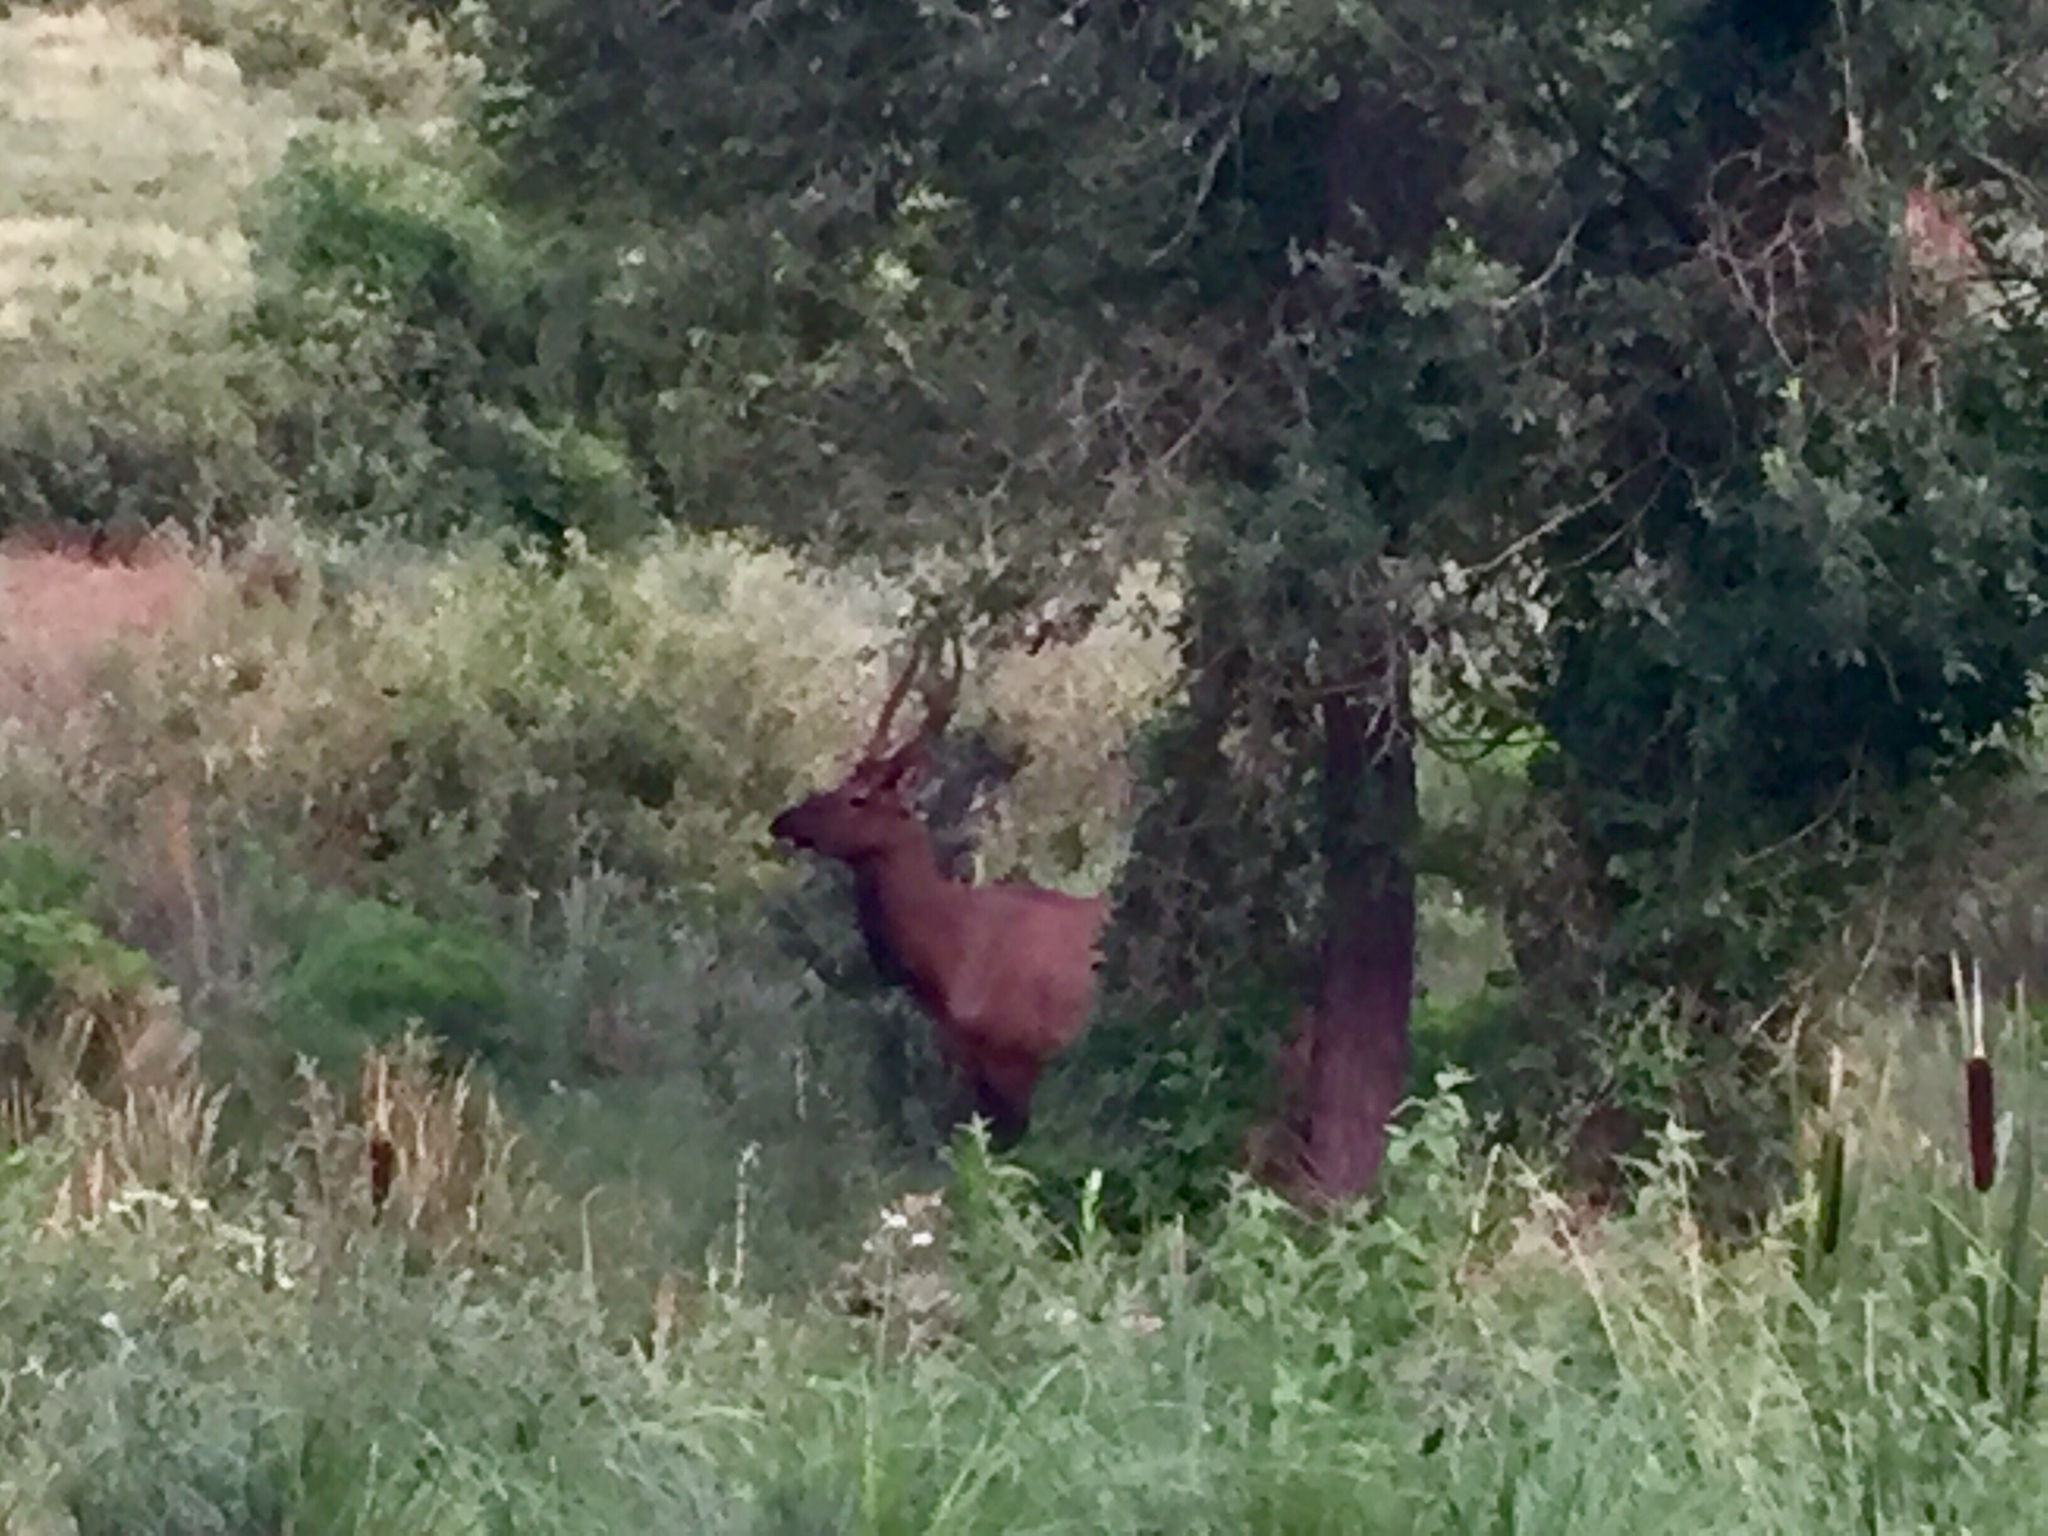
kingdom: Animalia
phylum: Chordata
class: Mammalia
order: Artiodactyla
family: Cervidae
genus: Cervus
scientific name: Cervus elaphus
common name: Red deer
